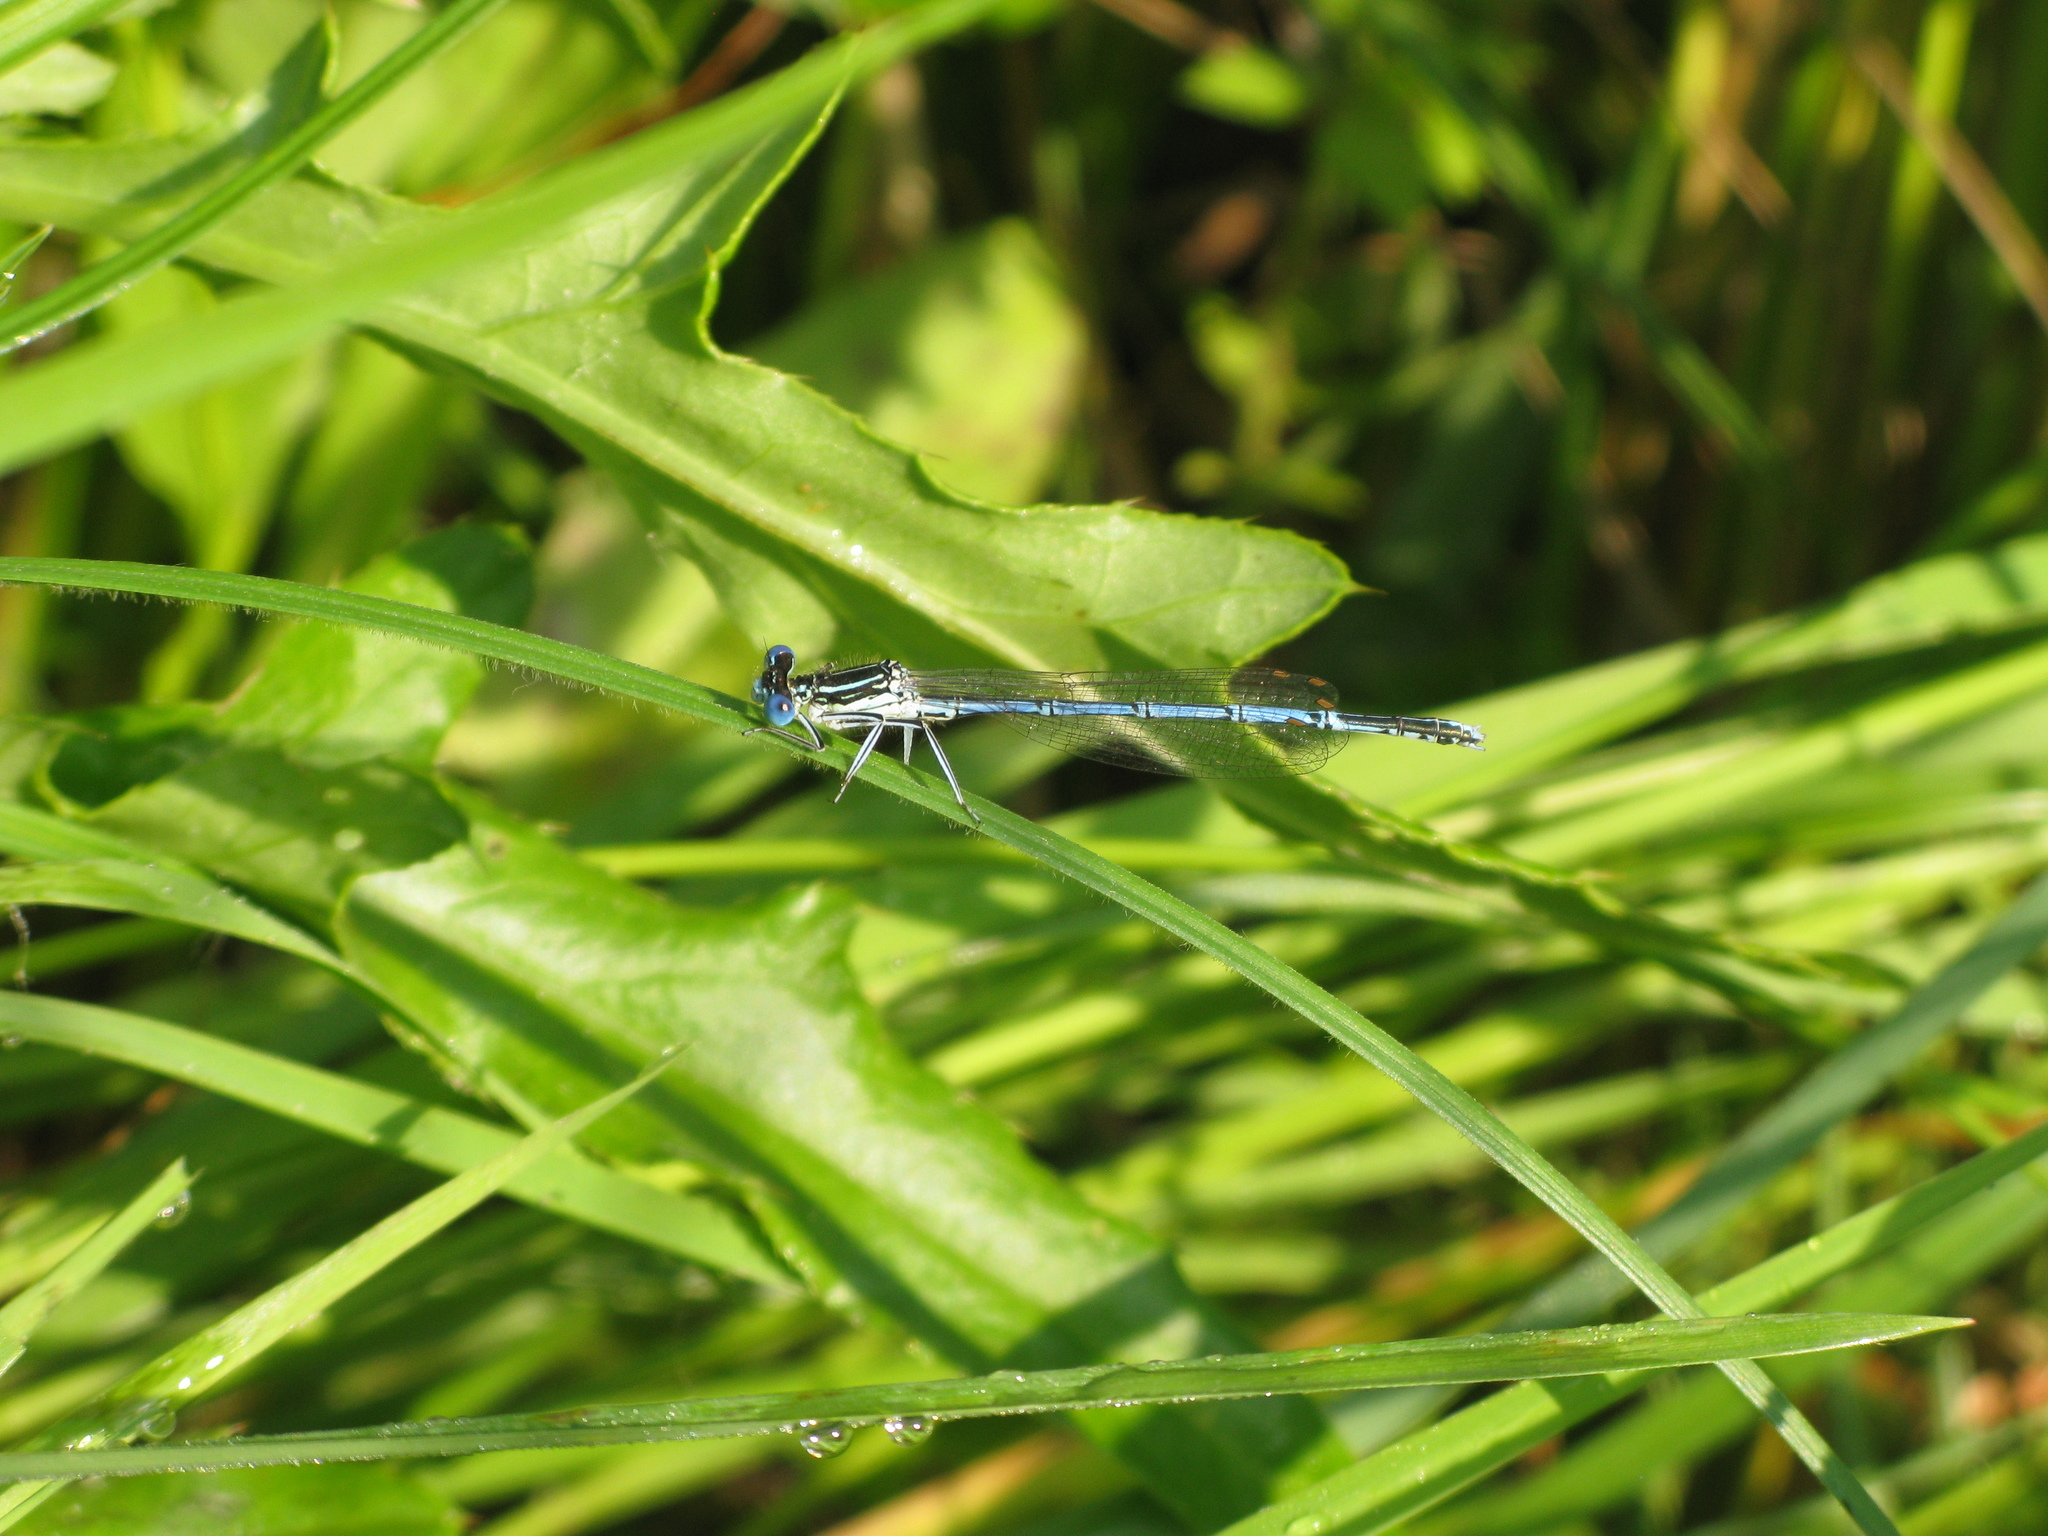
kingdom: Animalia
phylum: Arthropoda
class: Insecta
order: Odonata
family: Platycnemididae
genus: Platycnemis
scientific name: Platycnemis pennipes
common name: White-legged damselfly
